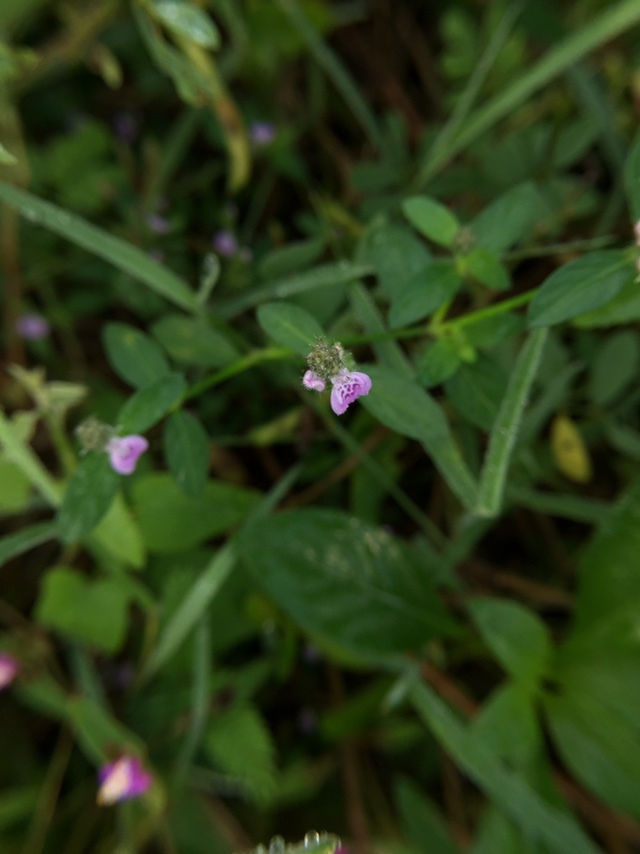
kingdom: Plantae
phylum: Tracheophyta
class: Magnoliopsida
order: Lamiales
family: Acanthaceae
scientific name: Acanthaceae
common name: Acanthaceae
